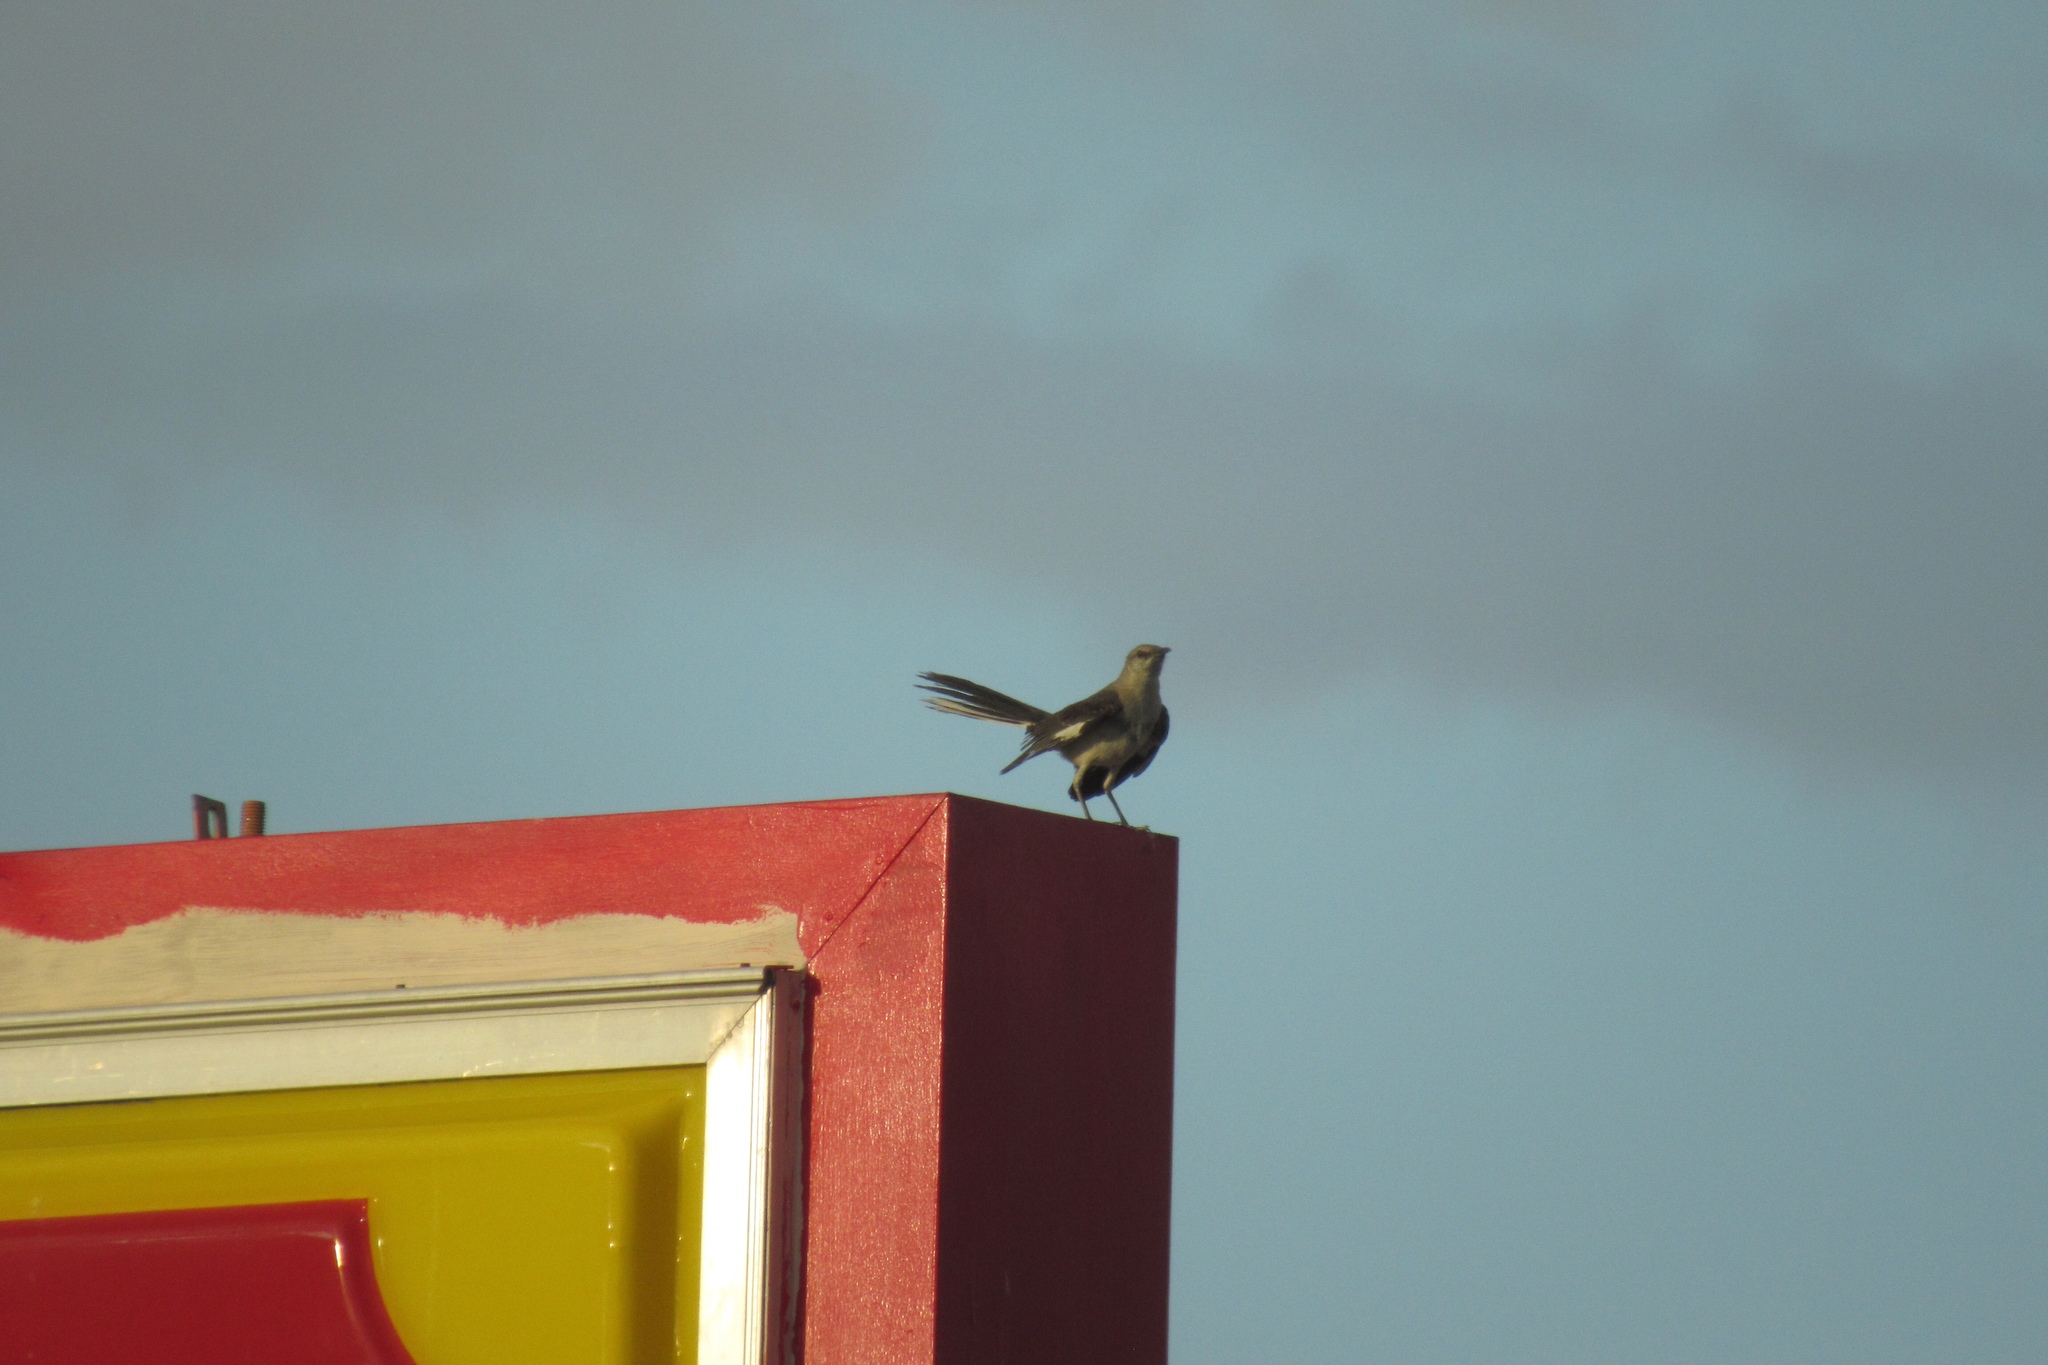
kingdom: Animalia
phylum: Chordata
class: Aves
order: Passeriformes
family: Mimidae
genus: Mimus
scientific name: Mimus polyglottos
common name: Northern mockingbird
